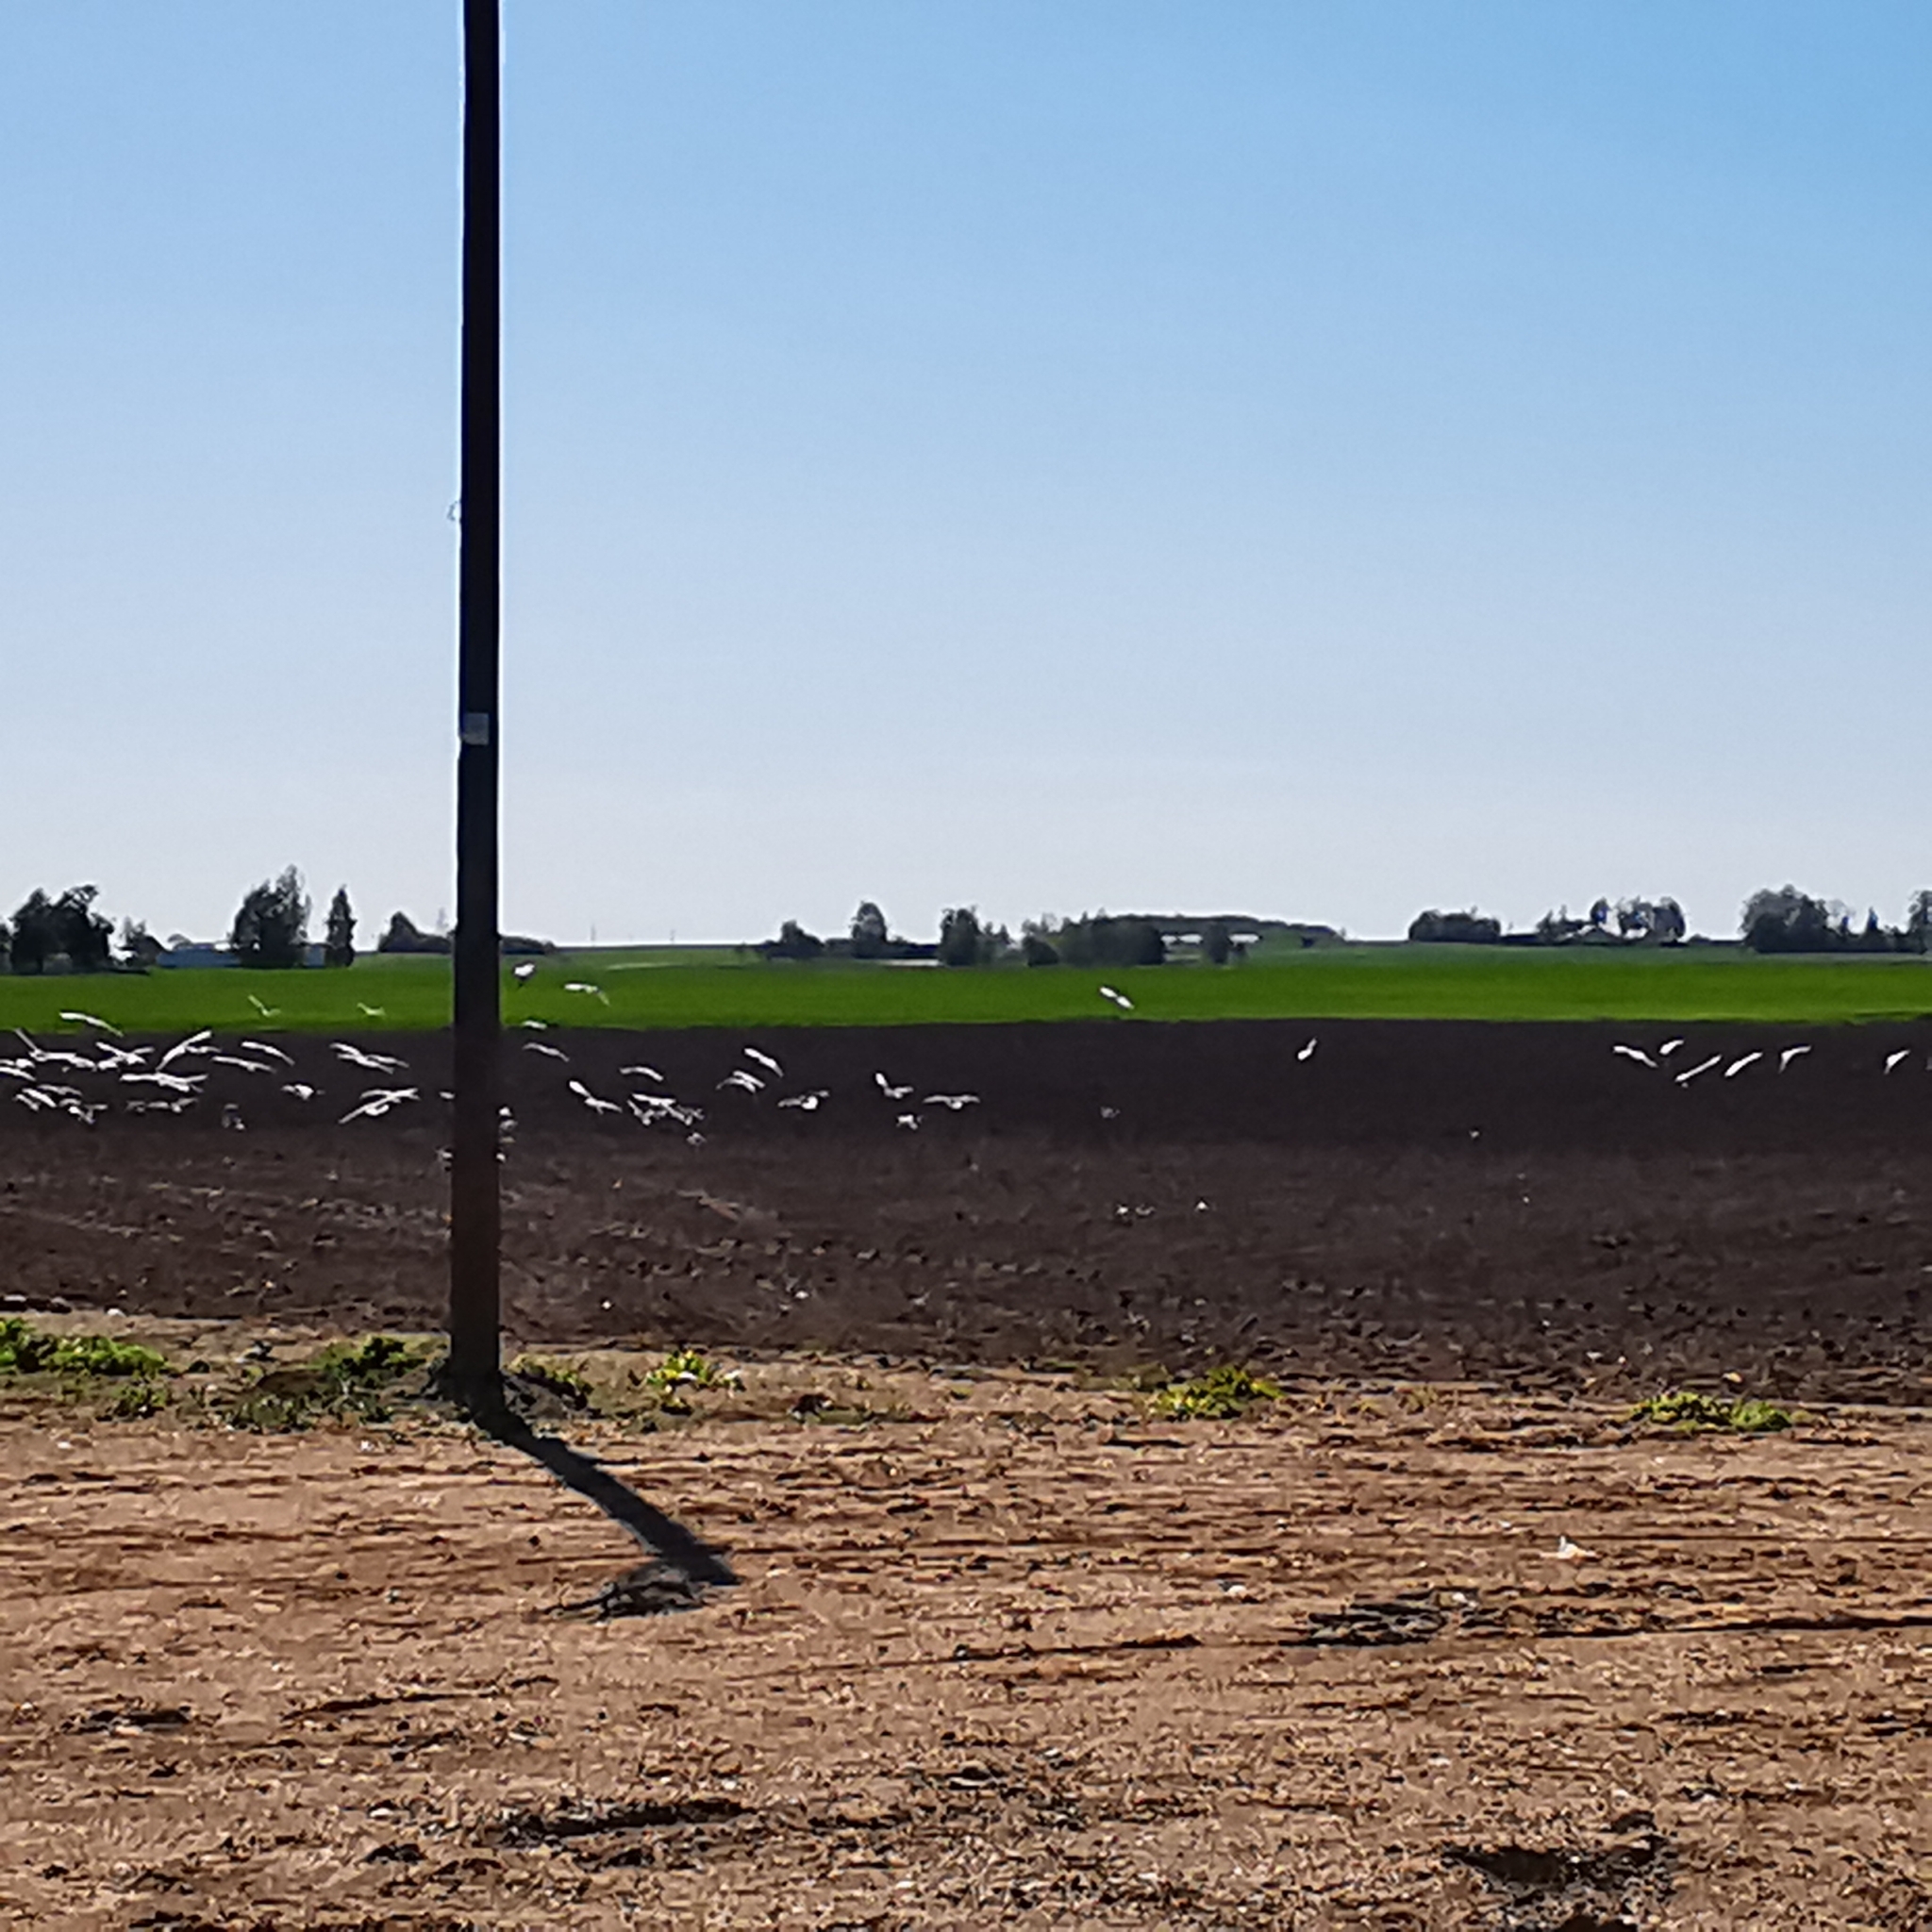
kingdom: Animalia
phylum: Chordata
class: Aves
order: Charadriiformes
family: Laridae
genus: Chroicocephalus
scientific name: Chroicocephalus ridibundus
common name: Black-headed gull
